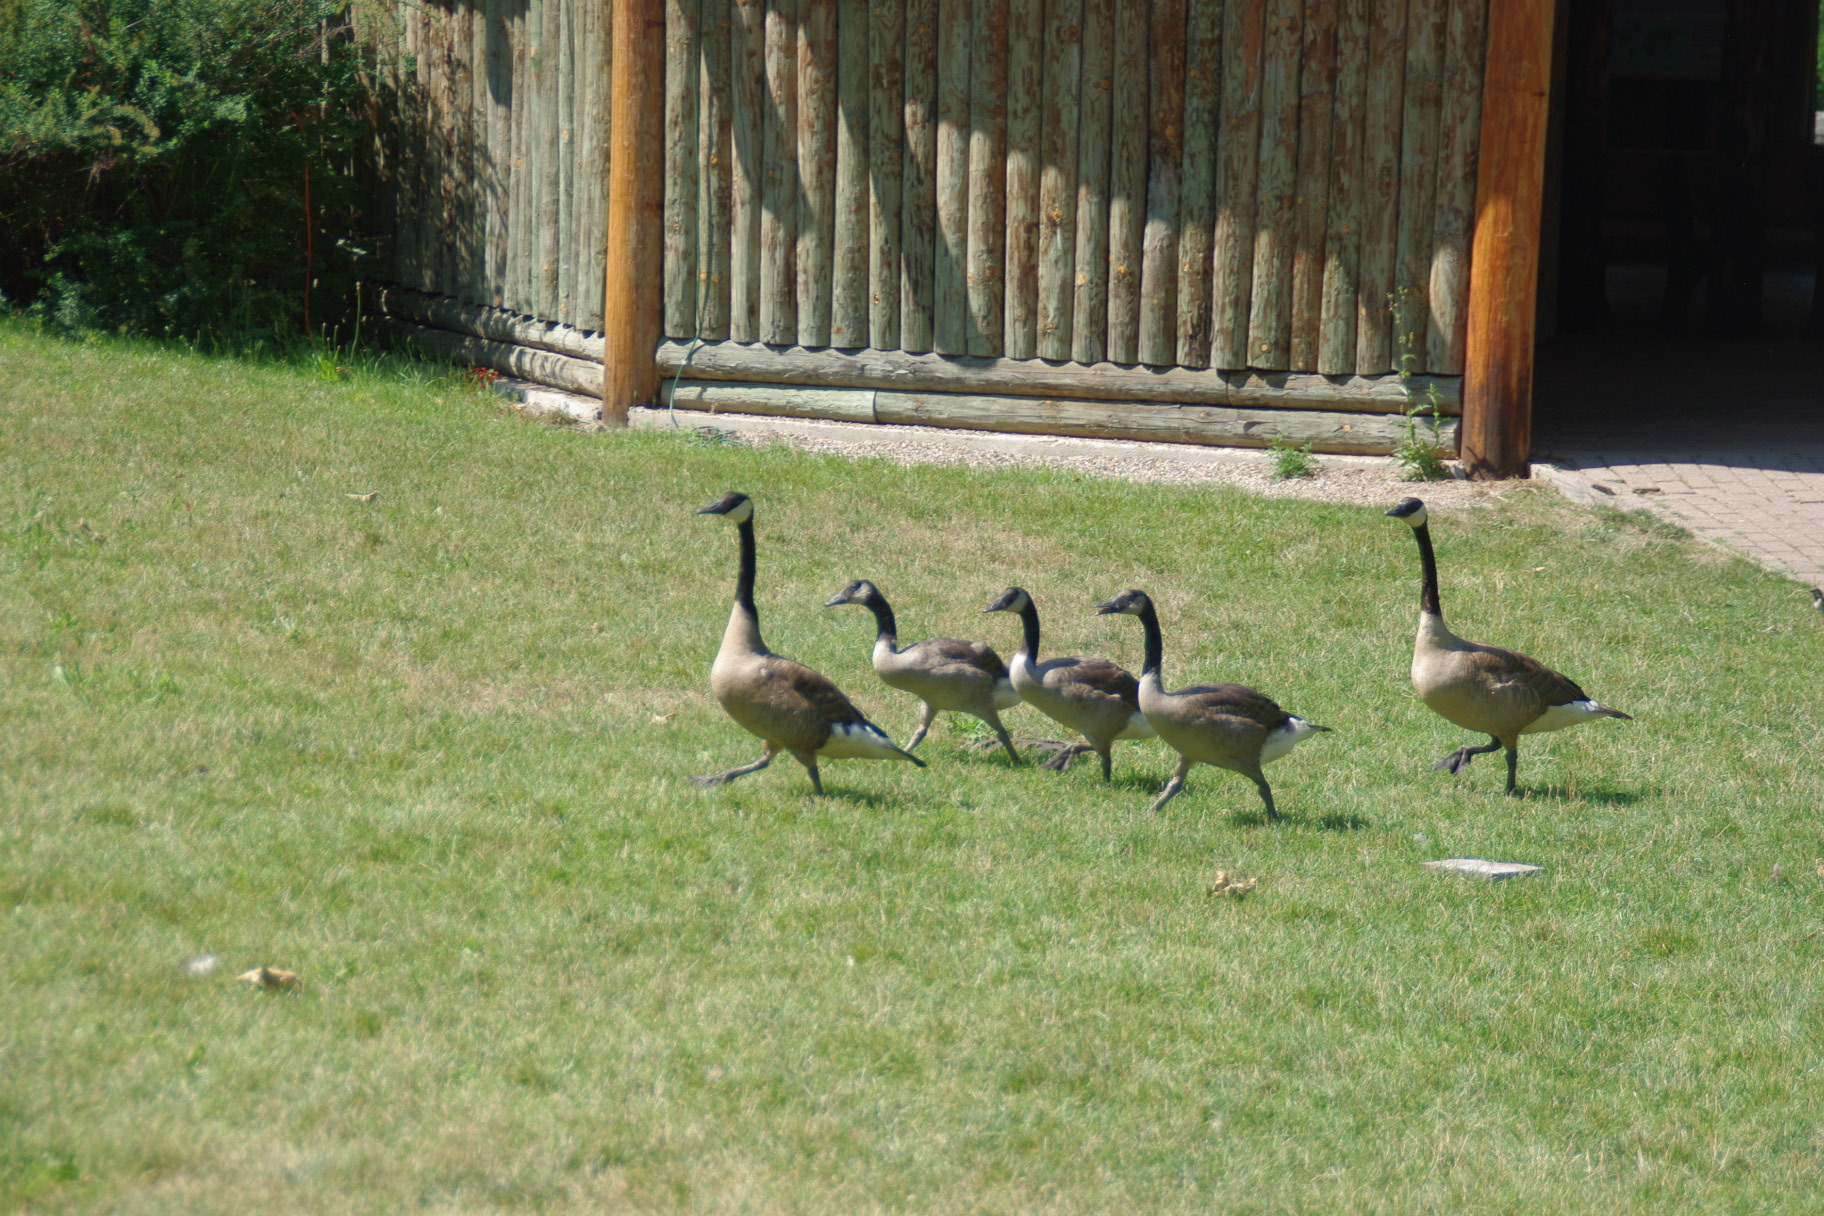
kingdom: Animalia
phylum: Chordata
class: Aves
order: Anseriformes
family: Anatidae
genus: Branta
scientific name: Branta canadensis
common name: Canada goose
